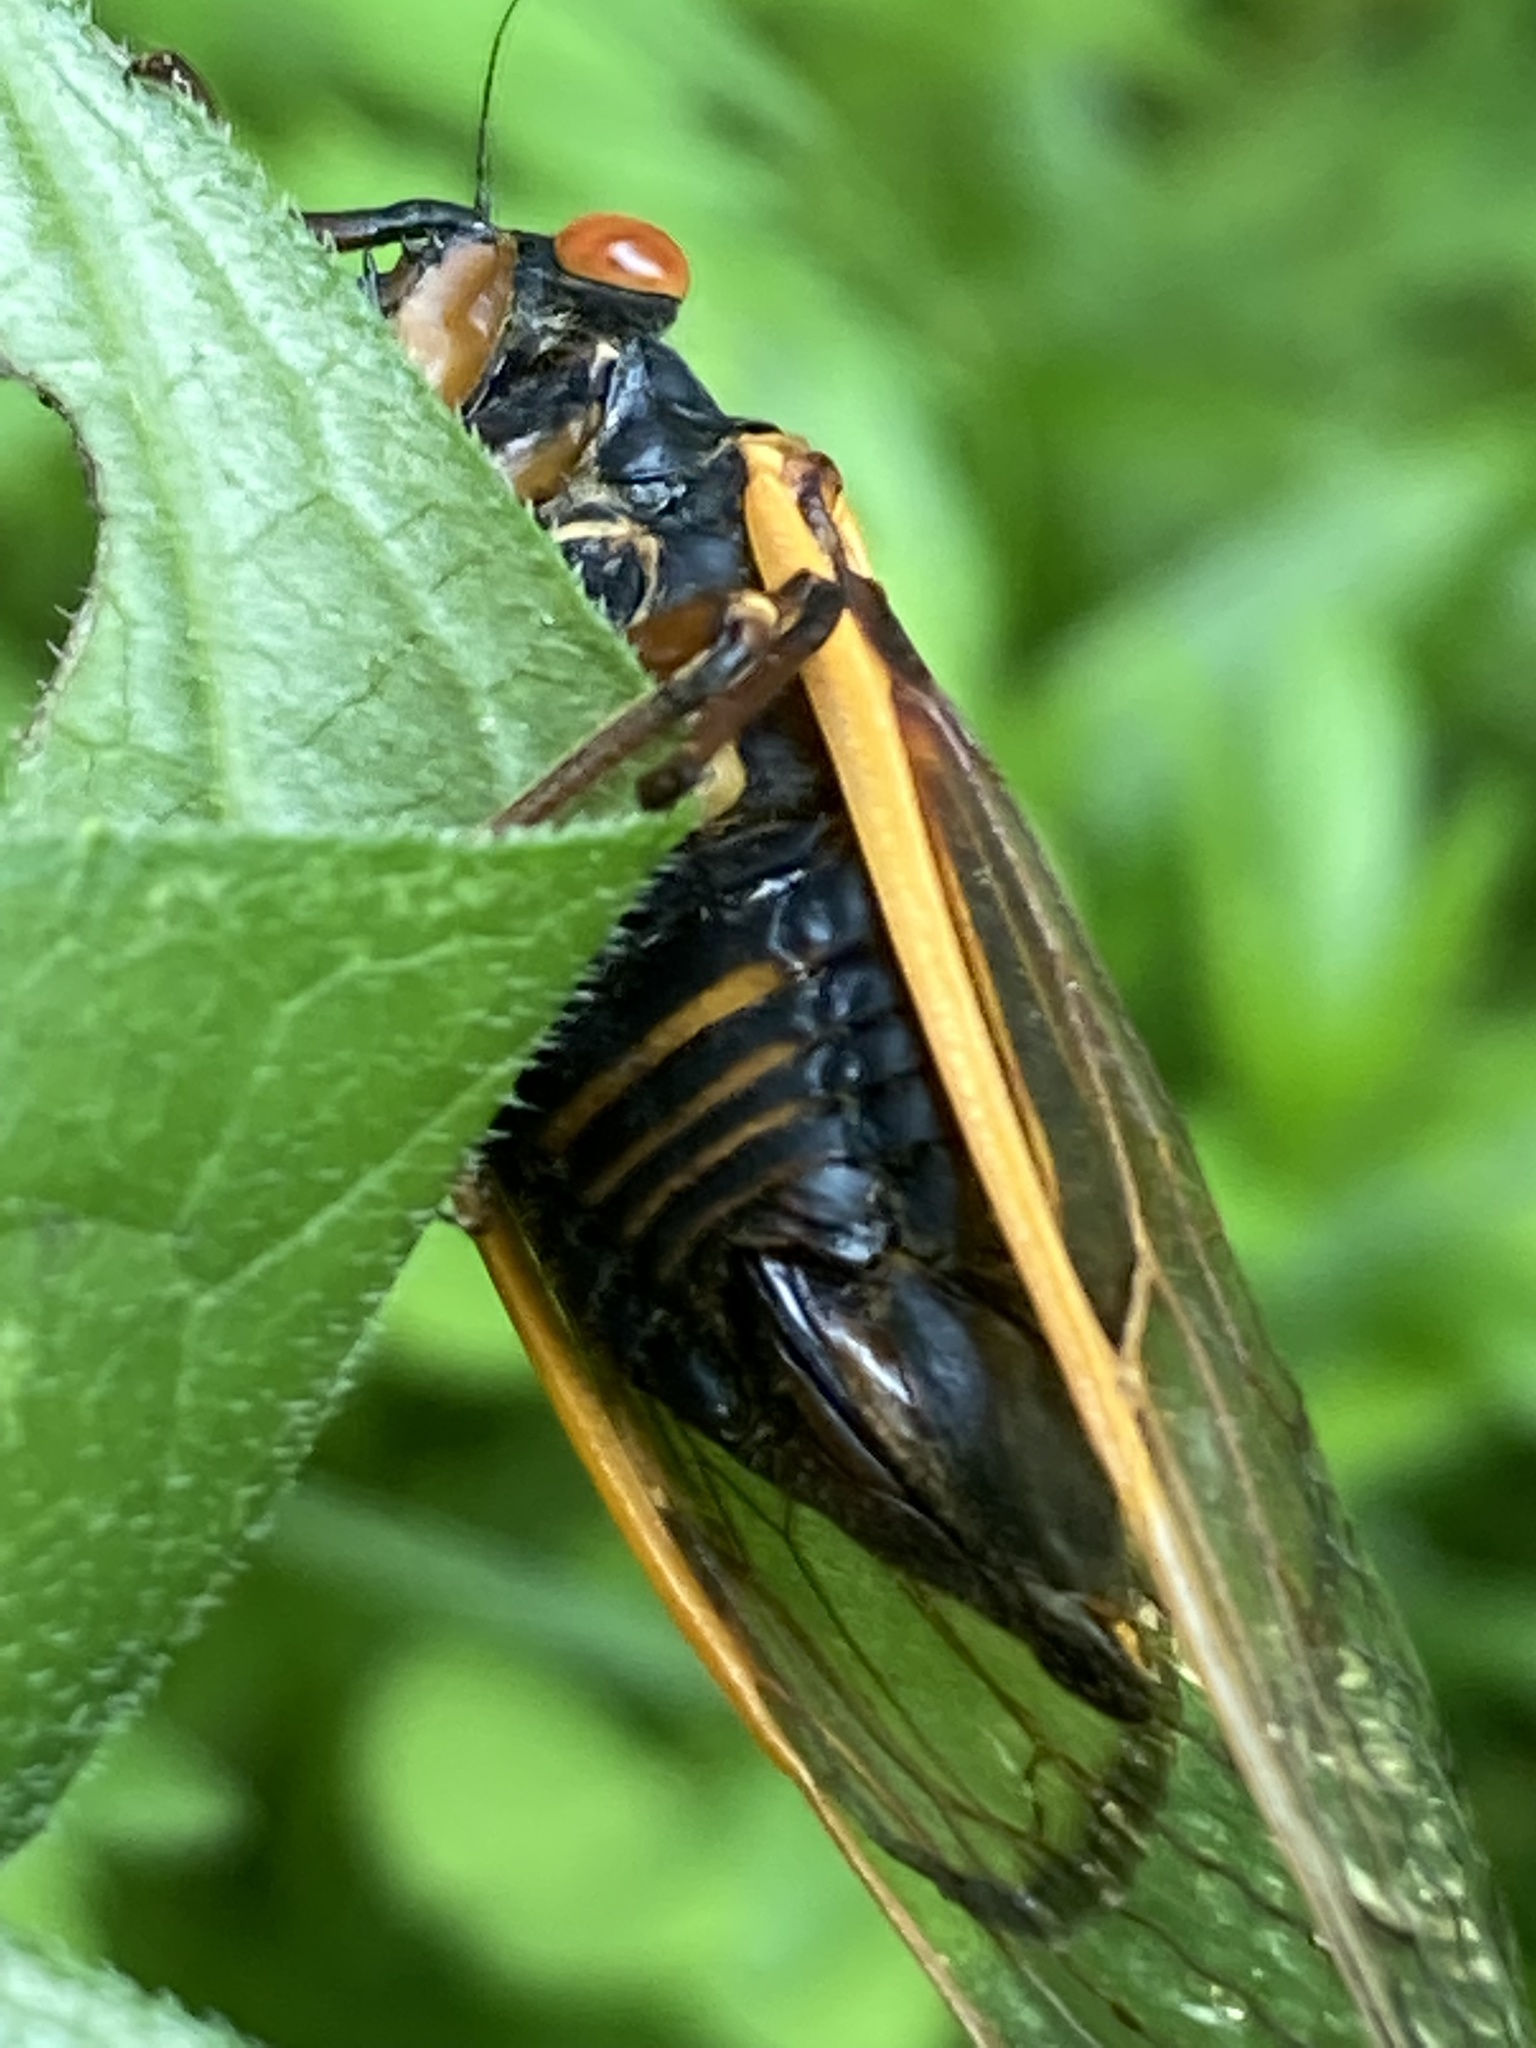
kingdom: Animalia
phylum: Arthropoda
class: Insecta
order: Hemiptera
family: Cicadidae
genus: Magicicada
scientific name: Magicicada septendecula
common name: Decula periodical cicada
